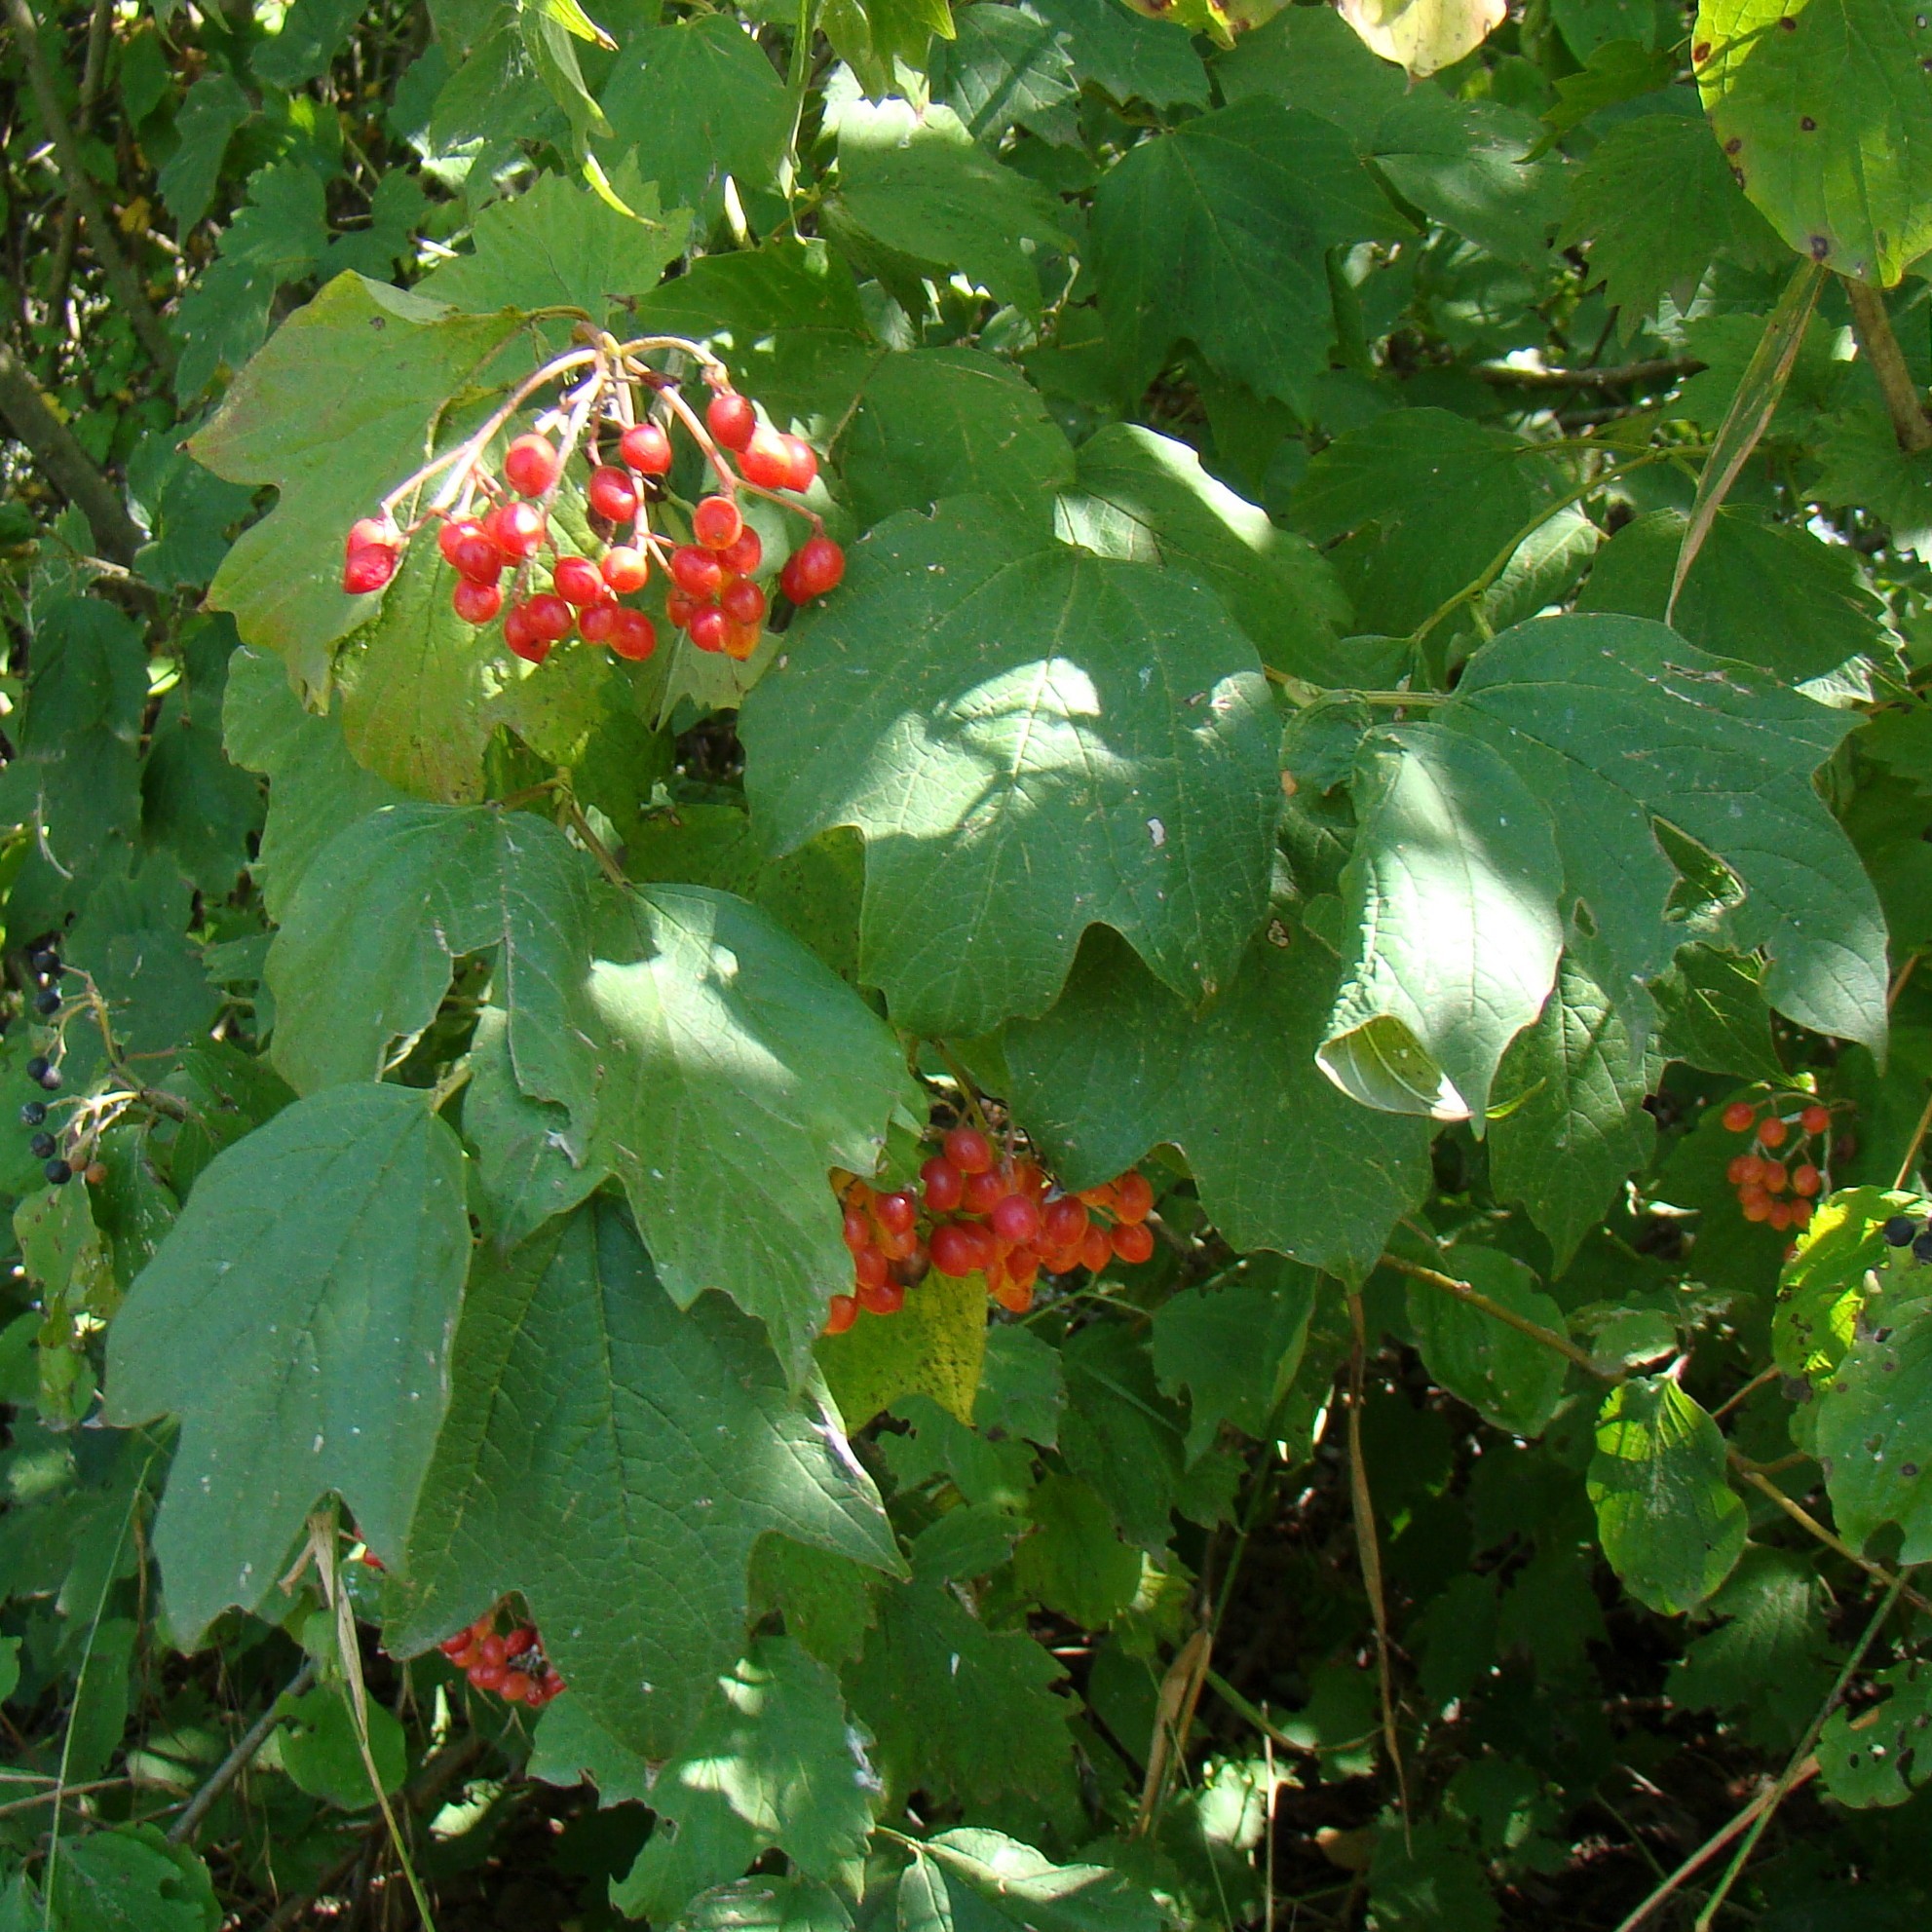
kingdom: Plantae
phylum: Tracheophyta
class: Magnoliopsida
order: Dipsacales
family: Viburnaceae
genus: Viburnum
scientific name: Viburnum opulus
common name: Guelder-rose
